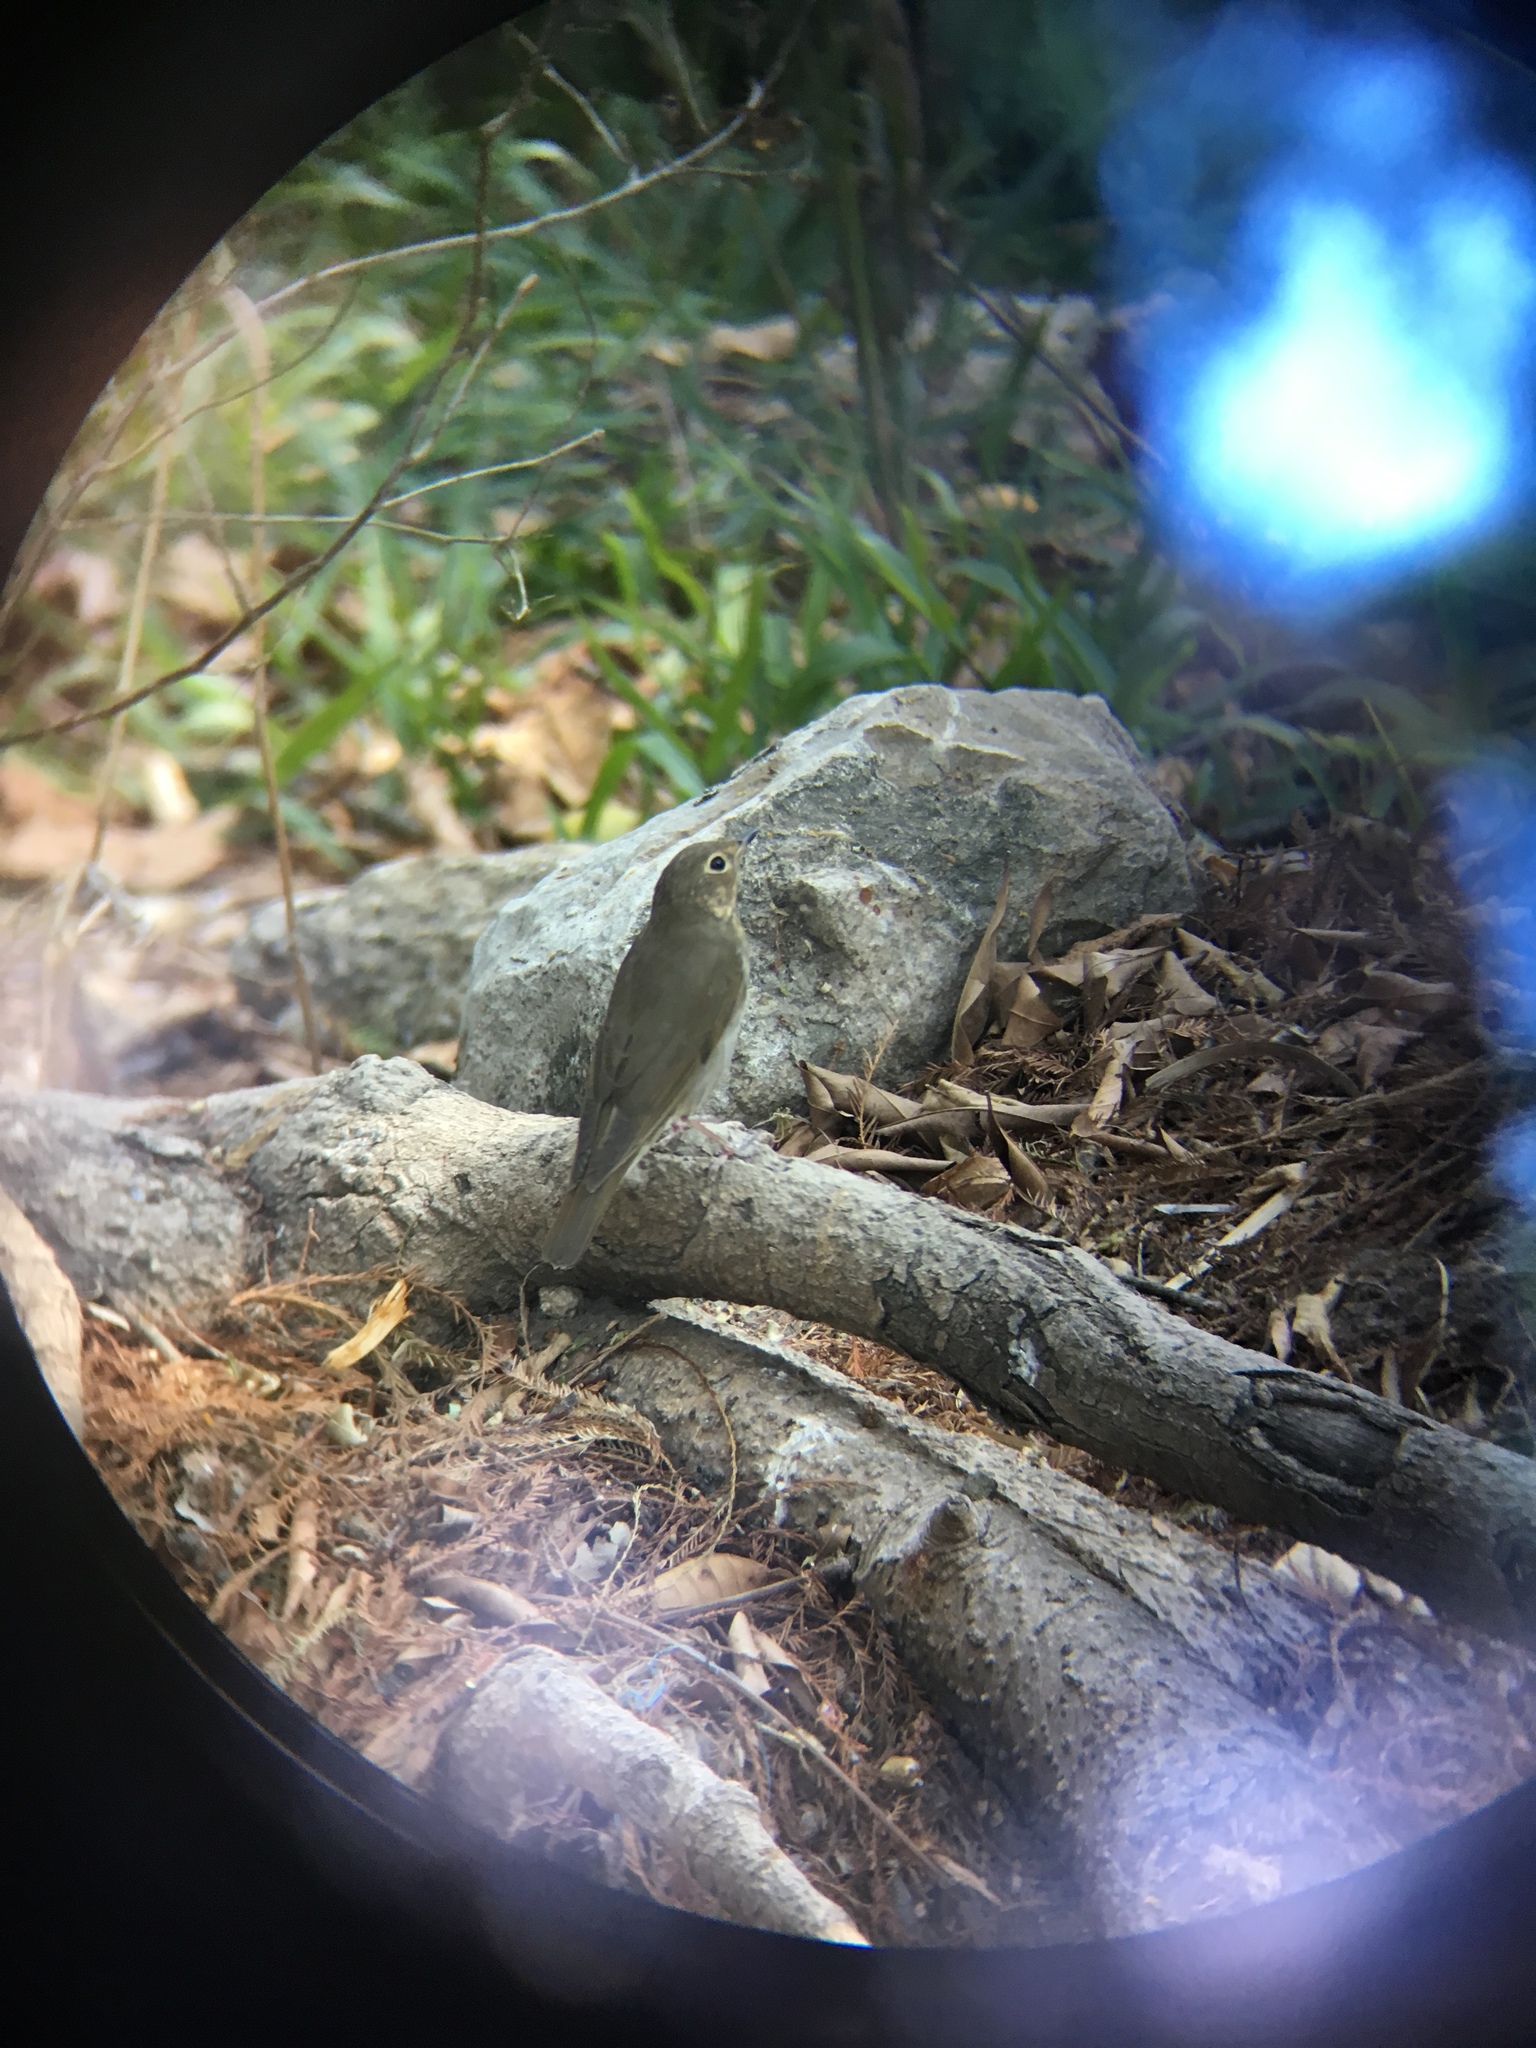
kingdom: Animalia
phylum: Chordata
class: Aves
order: Passeriformes
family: Turdidae
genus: Catharus
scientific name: Catharus ustulatus
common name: Swainson's thrush
